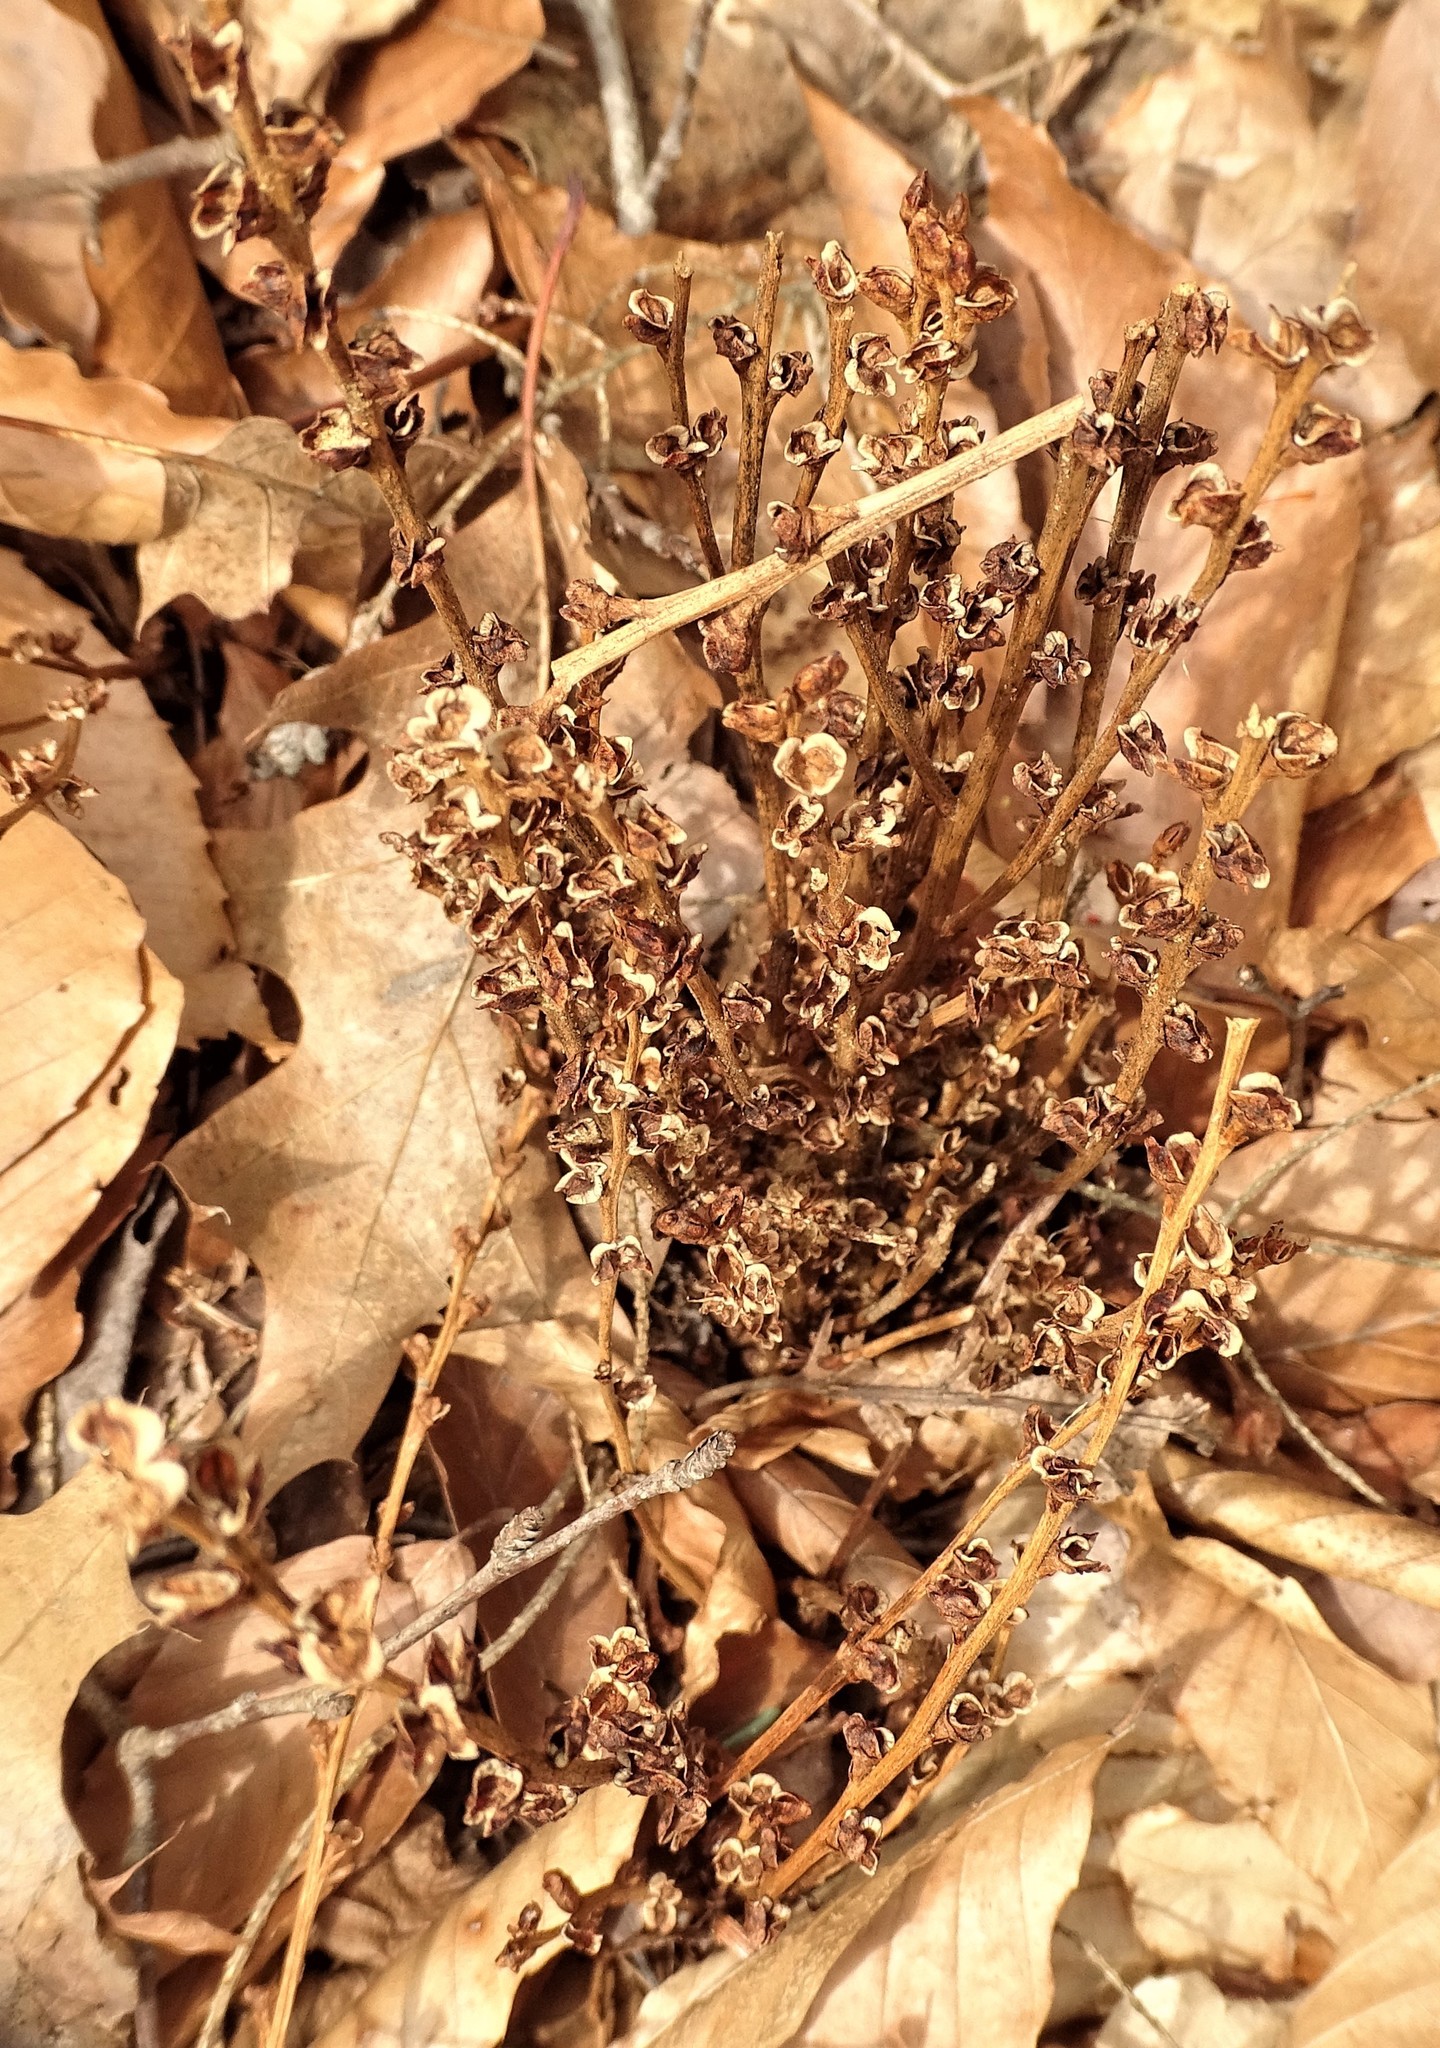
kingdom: Plantae
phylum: Tracheophyta
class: Magnoliopsida
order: Lamiales
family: Orobanchaceae
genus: Epifagus
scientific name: Epifagus virginiana
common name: Beechdrops
